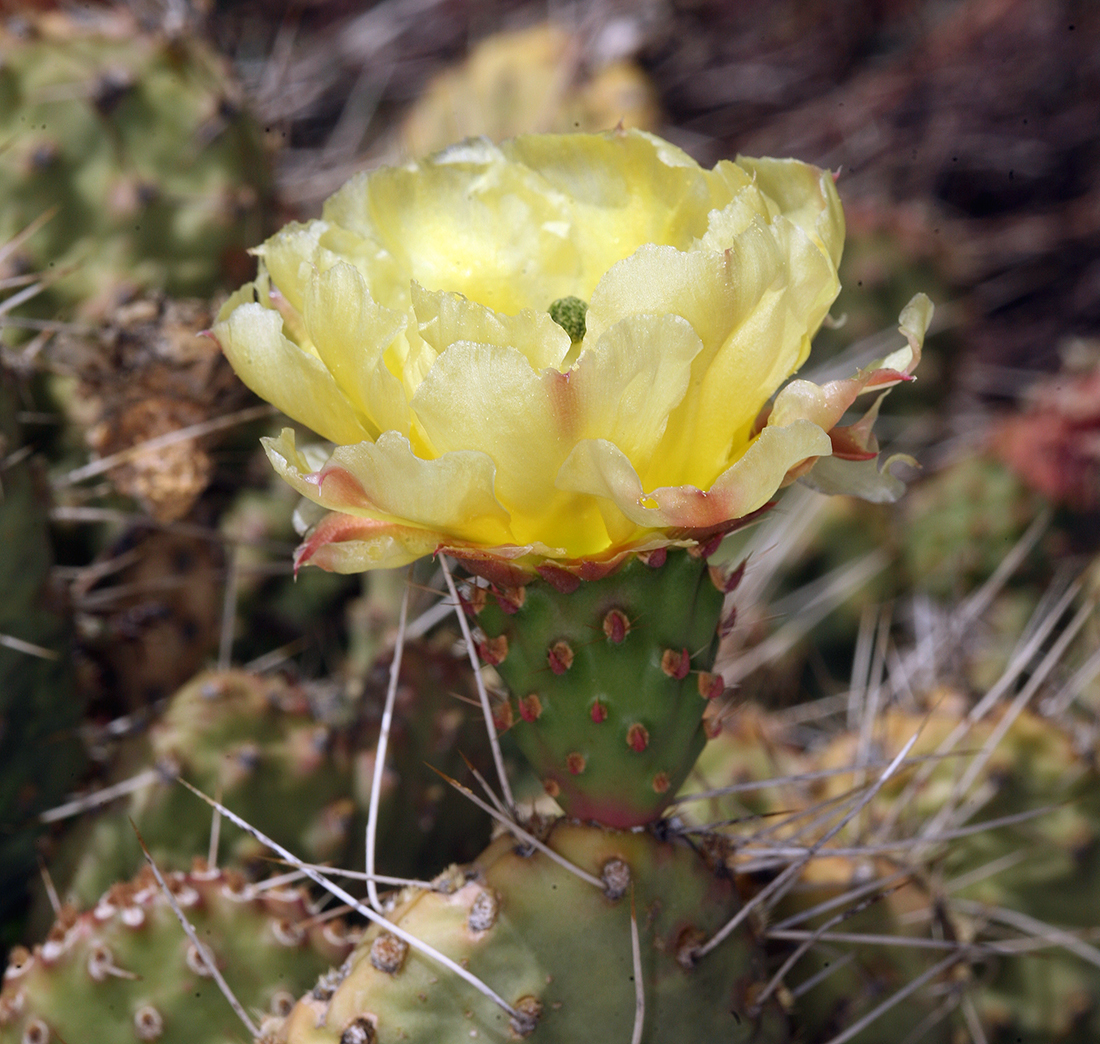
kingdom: Plantae
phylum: Tracheophyta
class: Magnoliopsida
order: Caryophyllales
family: Cactaceae
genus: Opuntia
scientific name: Opuntia polyacantha
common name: Plains prickly-pear
